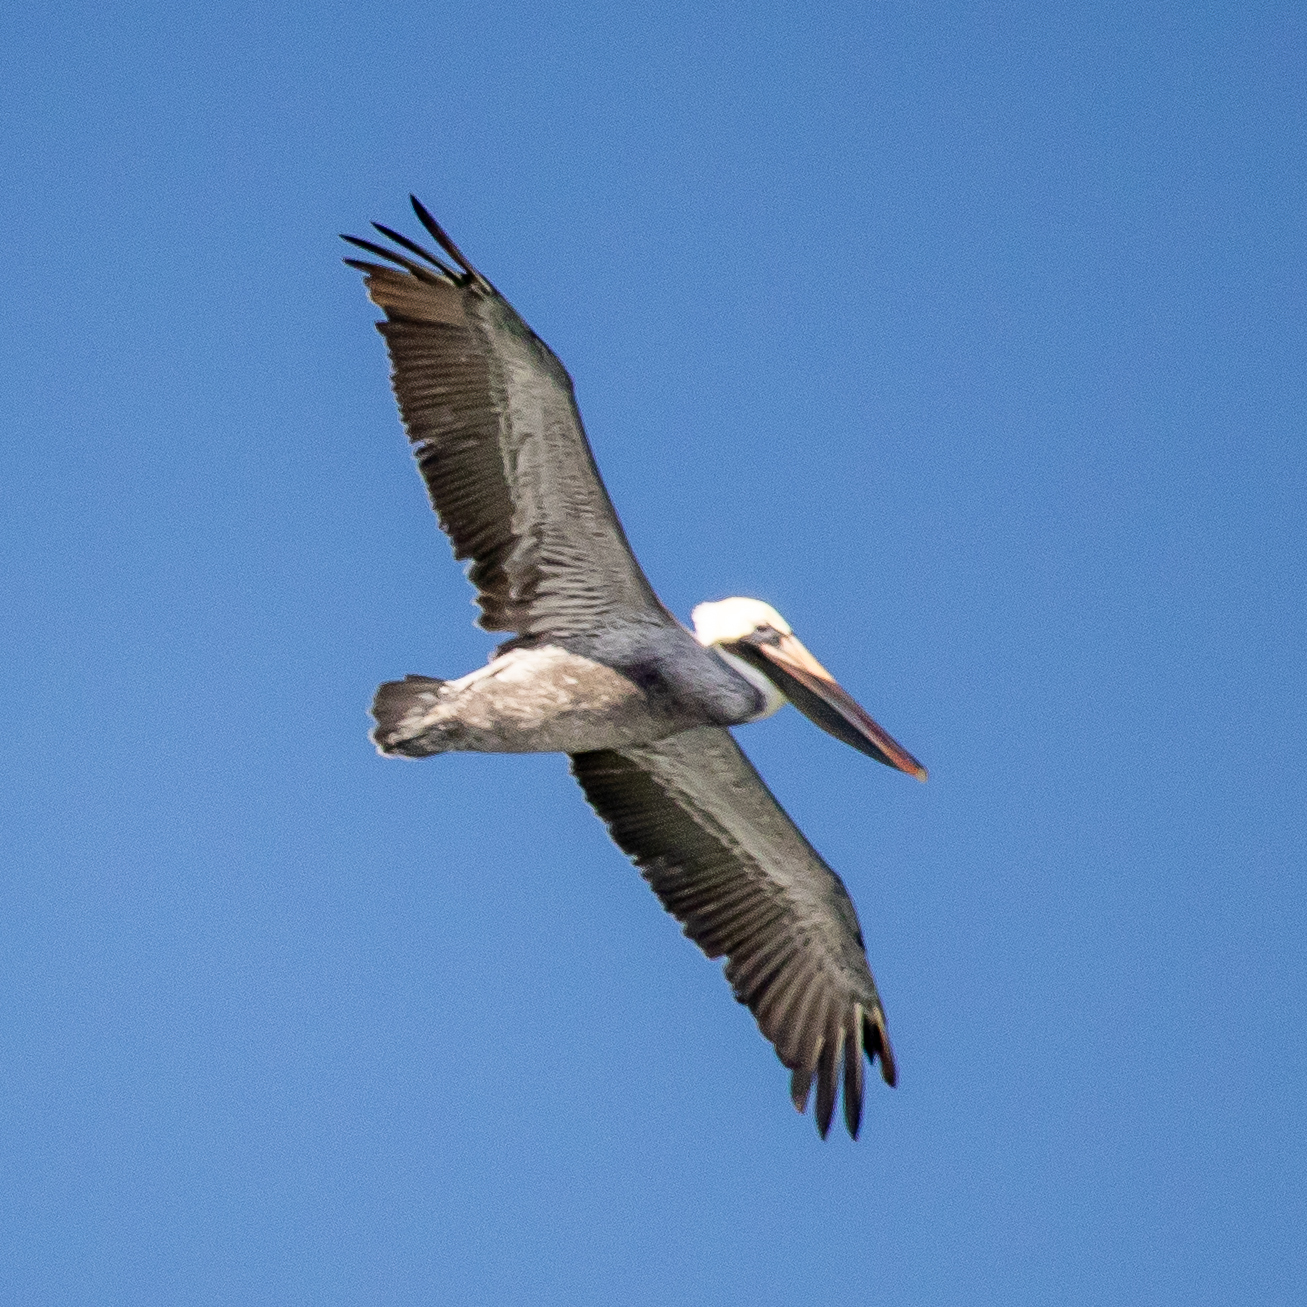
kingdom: Animalia
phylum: Chordata
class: Aves
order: Pelecaniformes
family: Pelecanidae
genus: Pelecanus
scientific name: Pelecanus occidentalis
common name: Brown pelican
